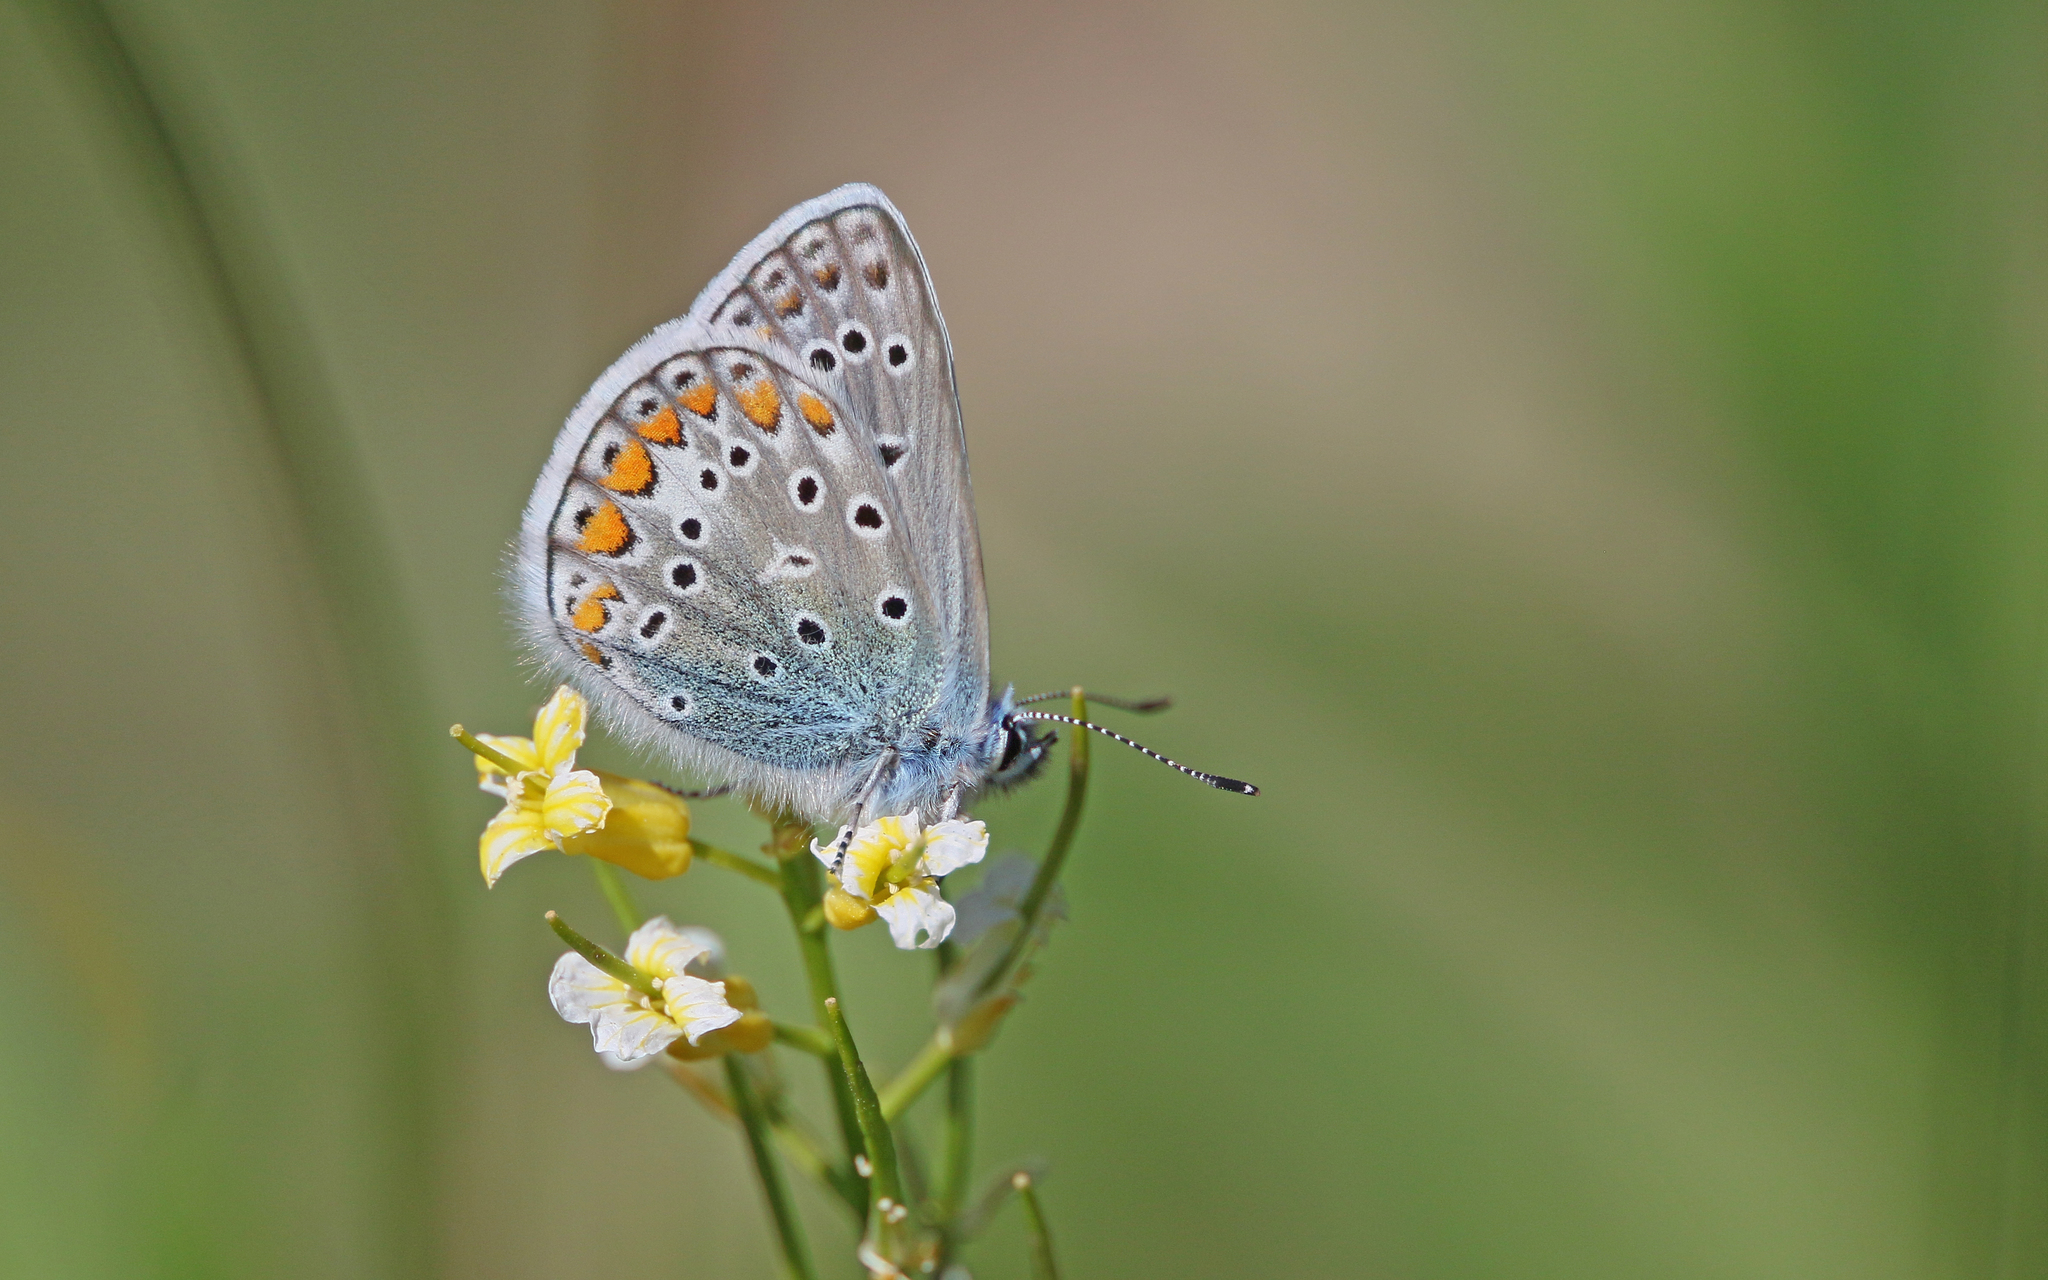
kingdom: Animalia
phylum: Arthropoda
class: Insecta
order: Lepidoptera
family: Lycaenidae
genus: Polyommatus
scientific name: Polyommatus icarus
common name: Common blue
